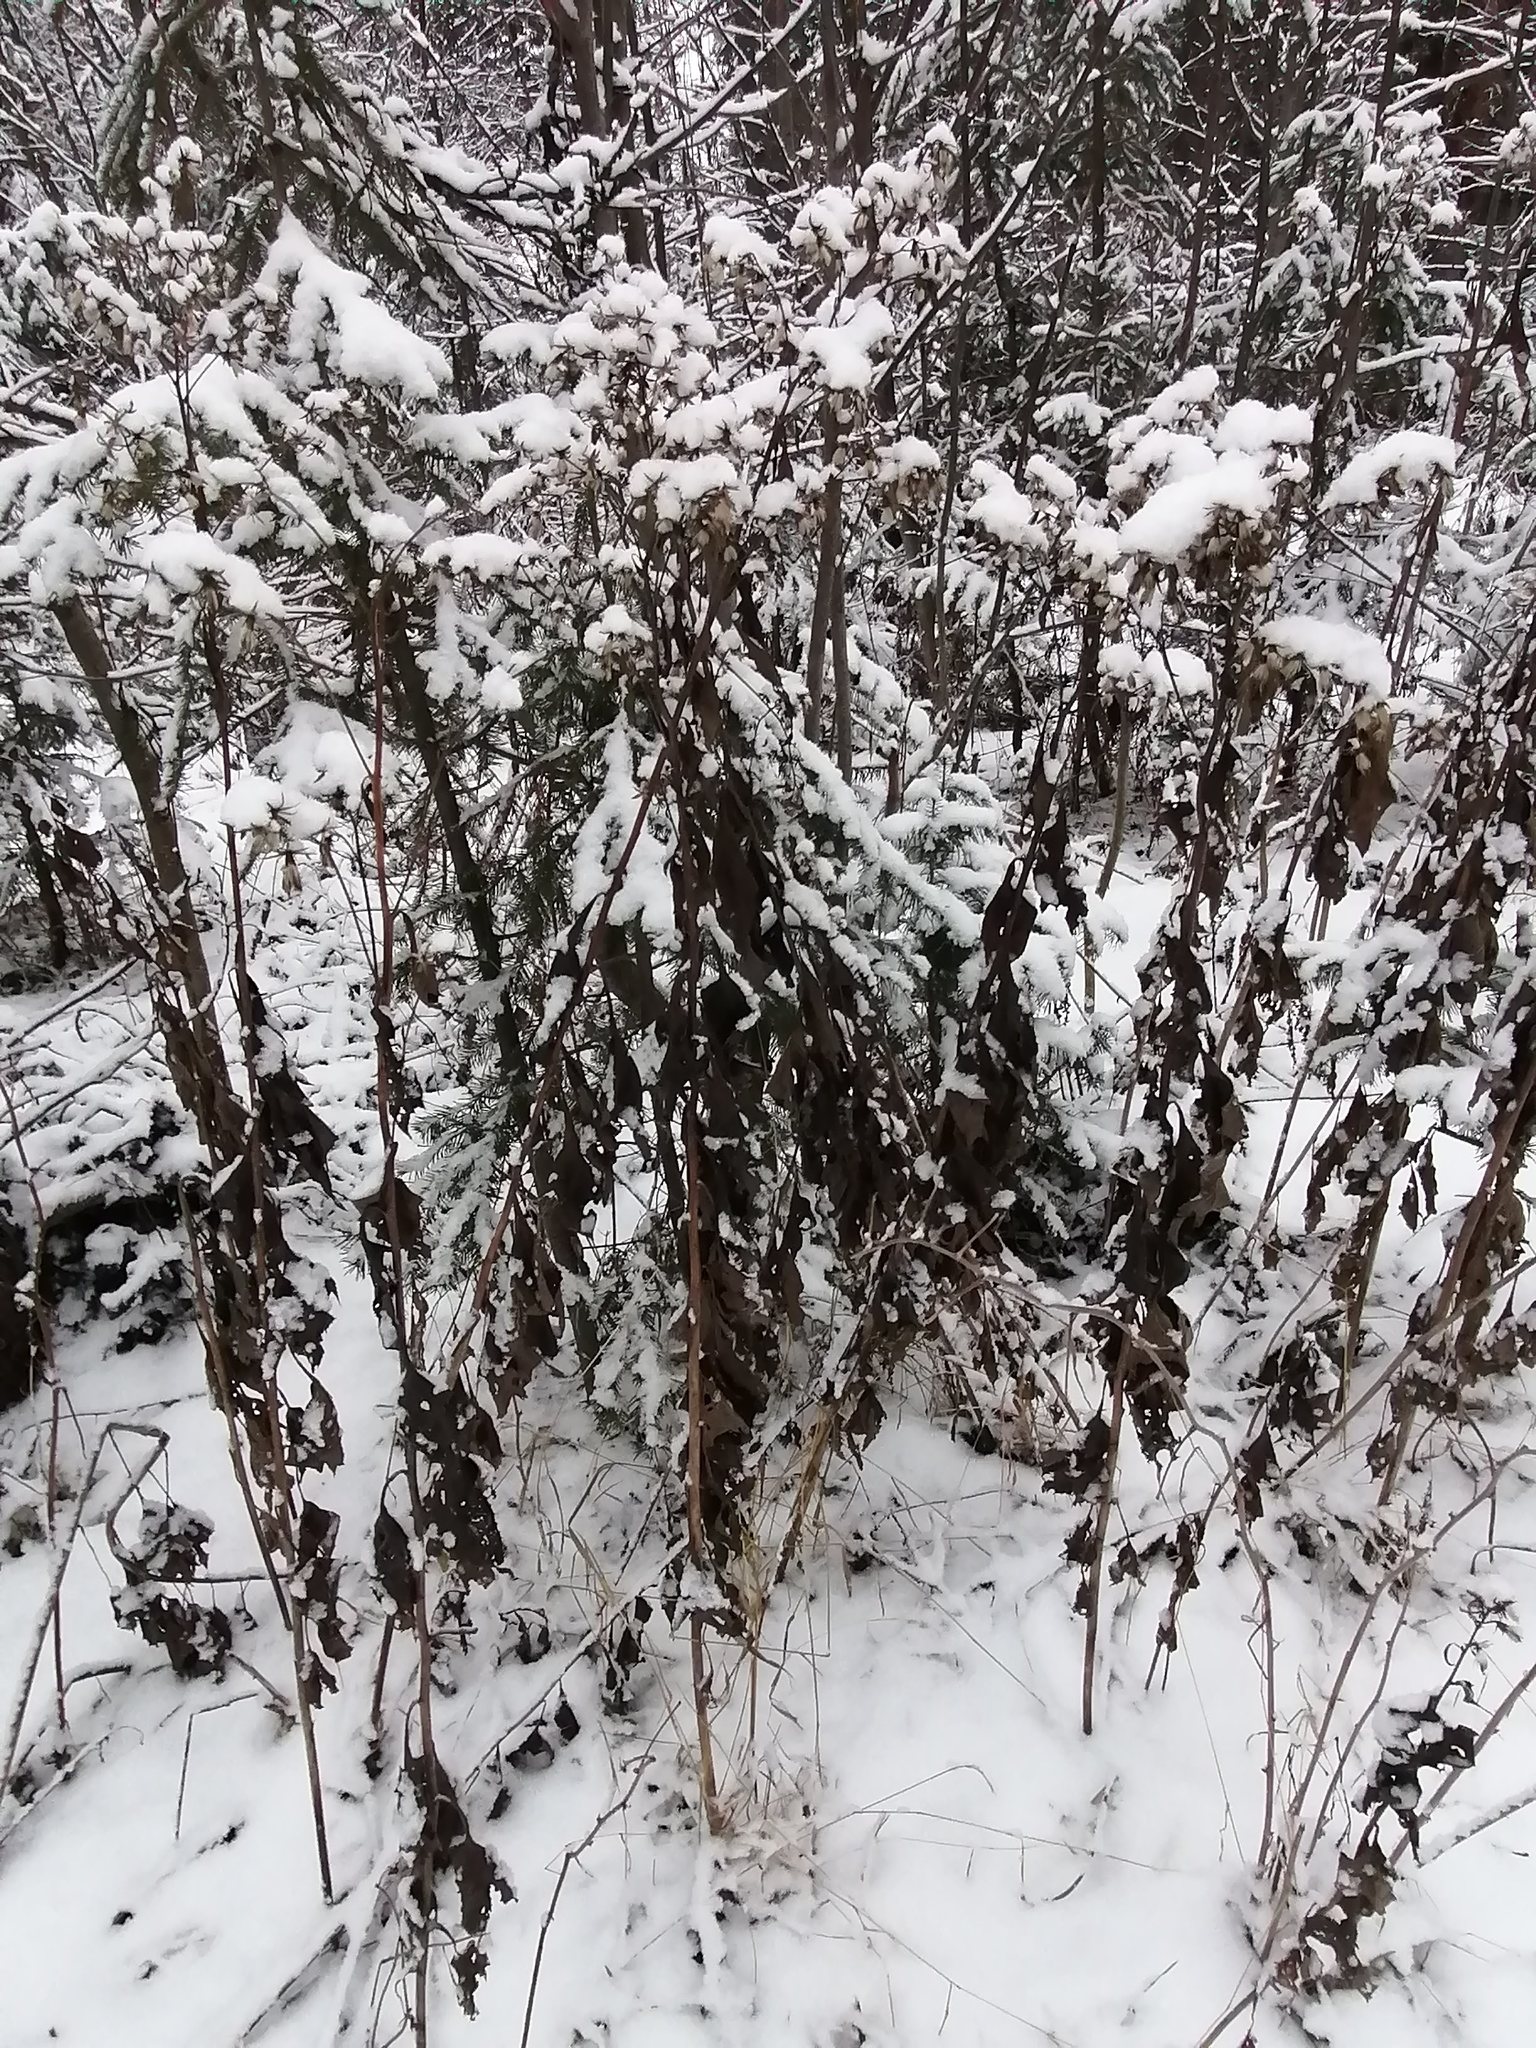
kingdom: Plantae
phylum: Tracheophyta
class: Magnoliopsida
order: Asterales
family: Asteraceae
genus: Parasenecio
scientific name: Parasenecio hastatus
